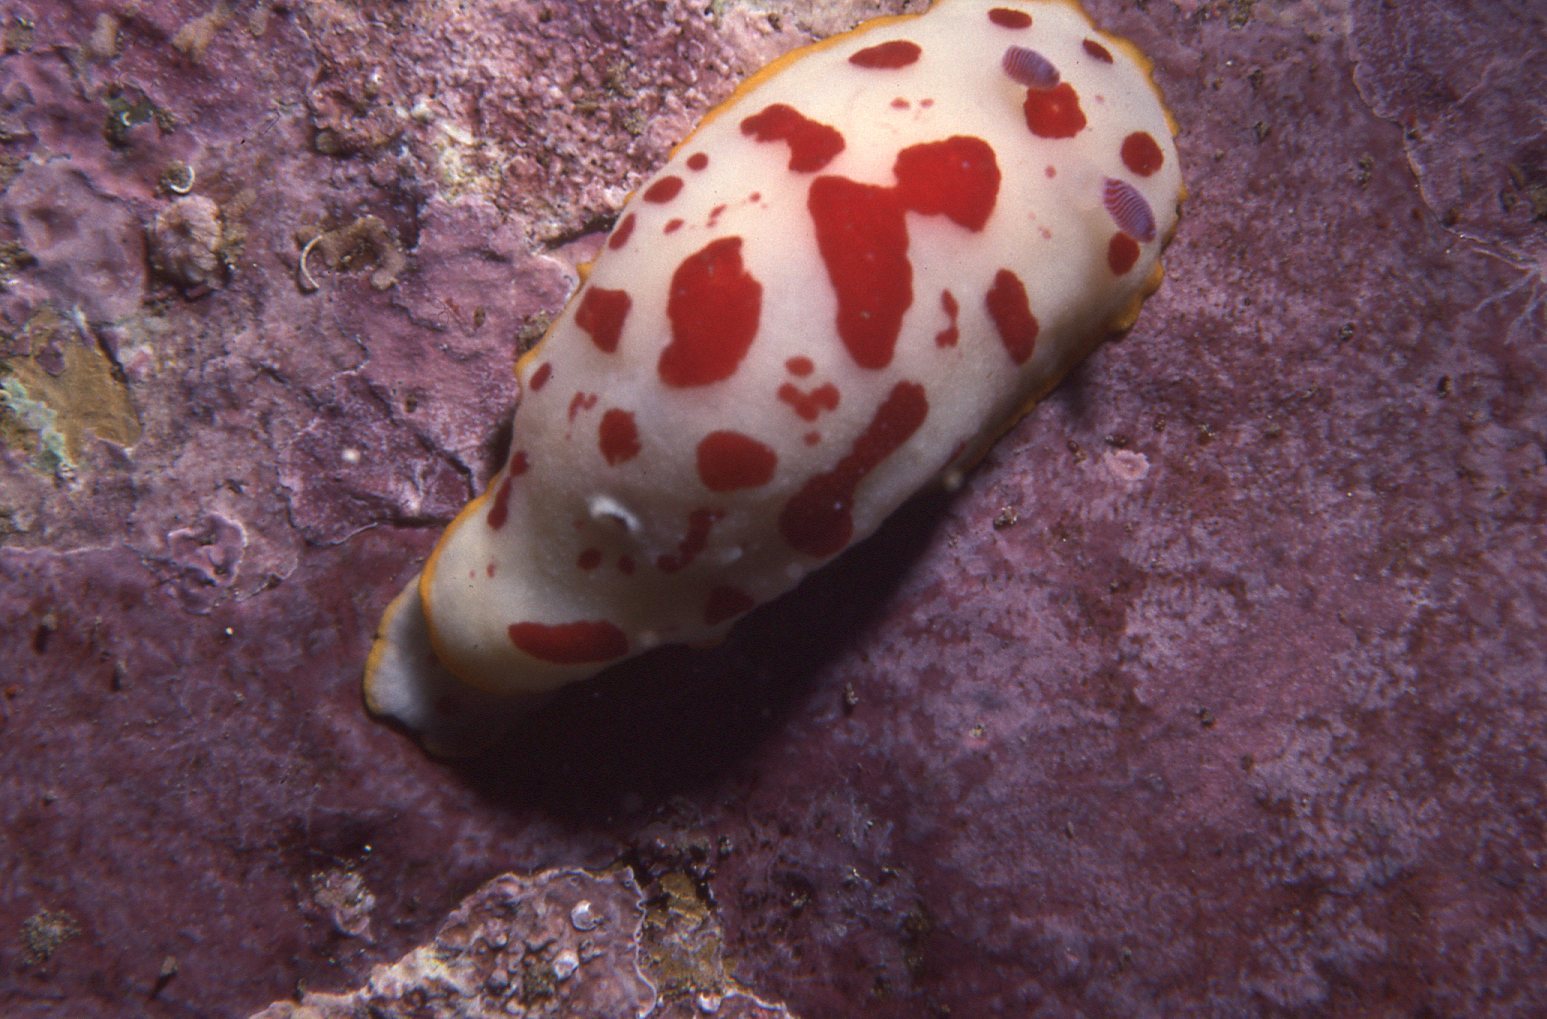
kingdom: Animalia
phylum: Mollusca
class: Gastropoda
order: Nudibranchia
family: Chromodorididae
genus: Goniobranchus
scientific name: Goniobranchus splendidus
